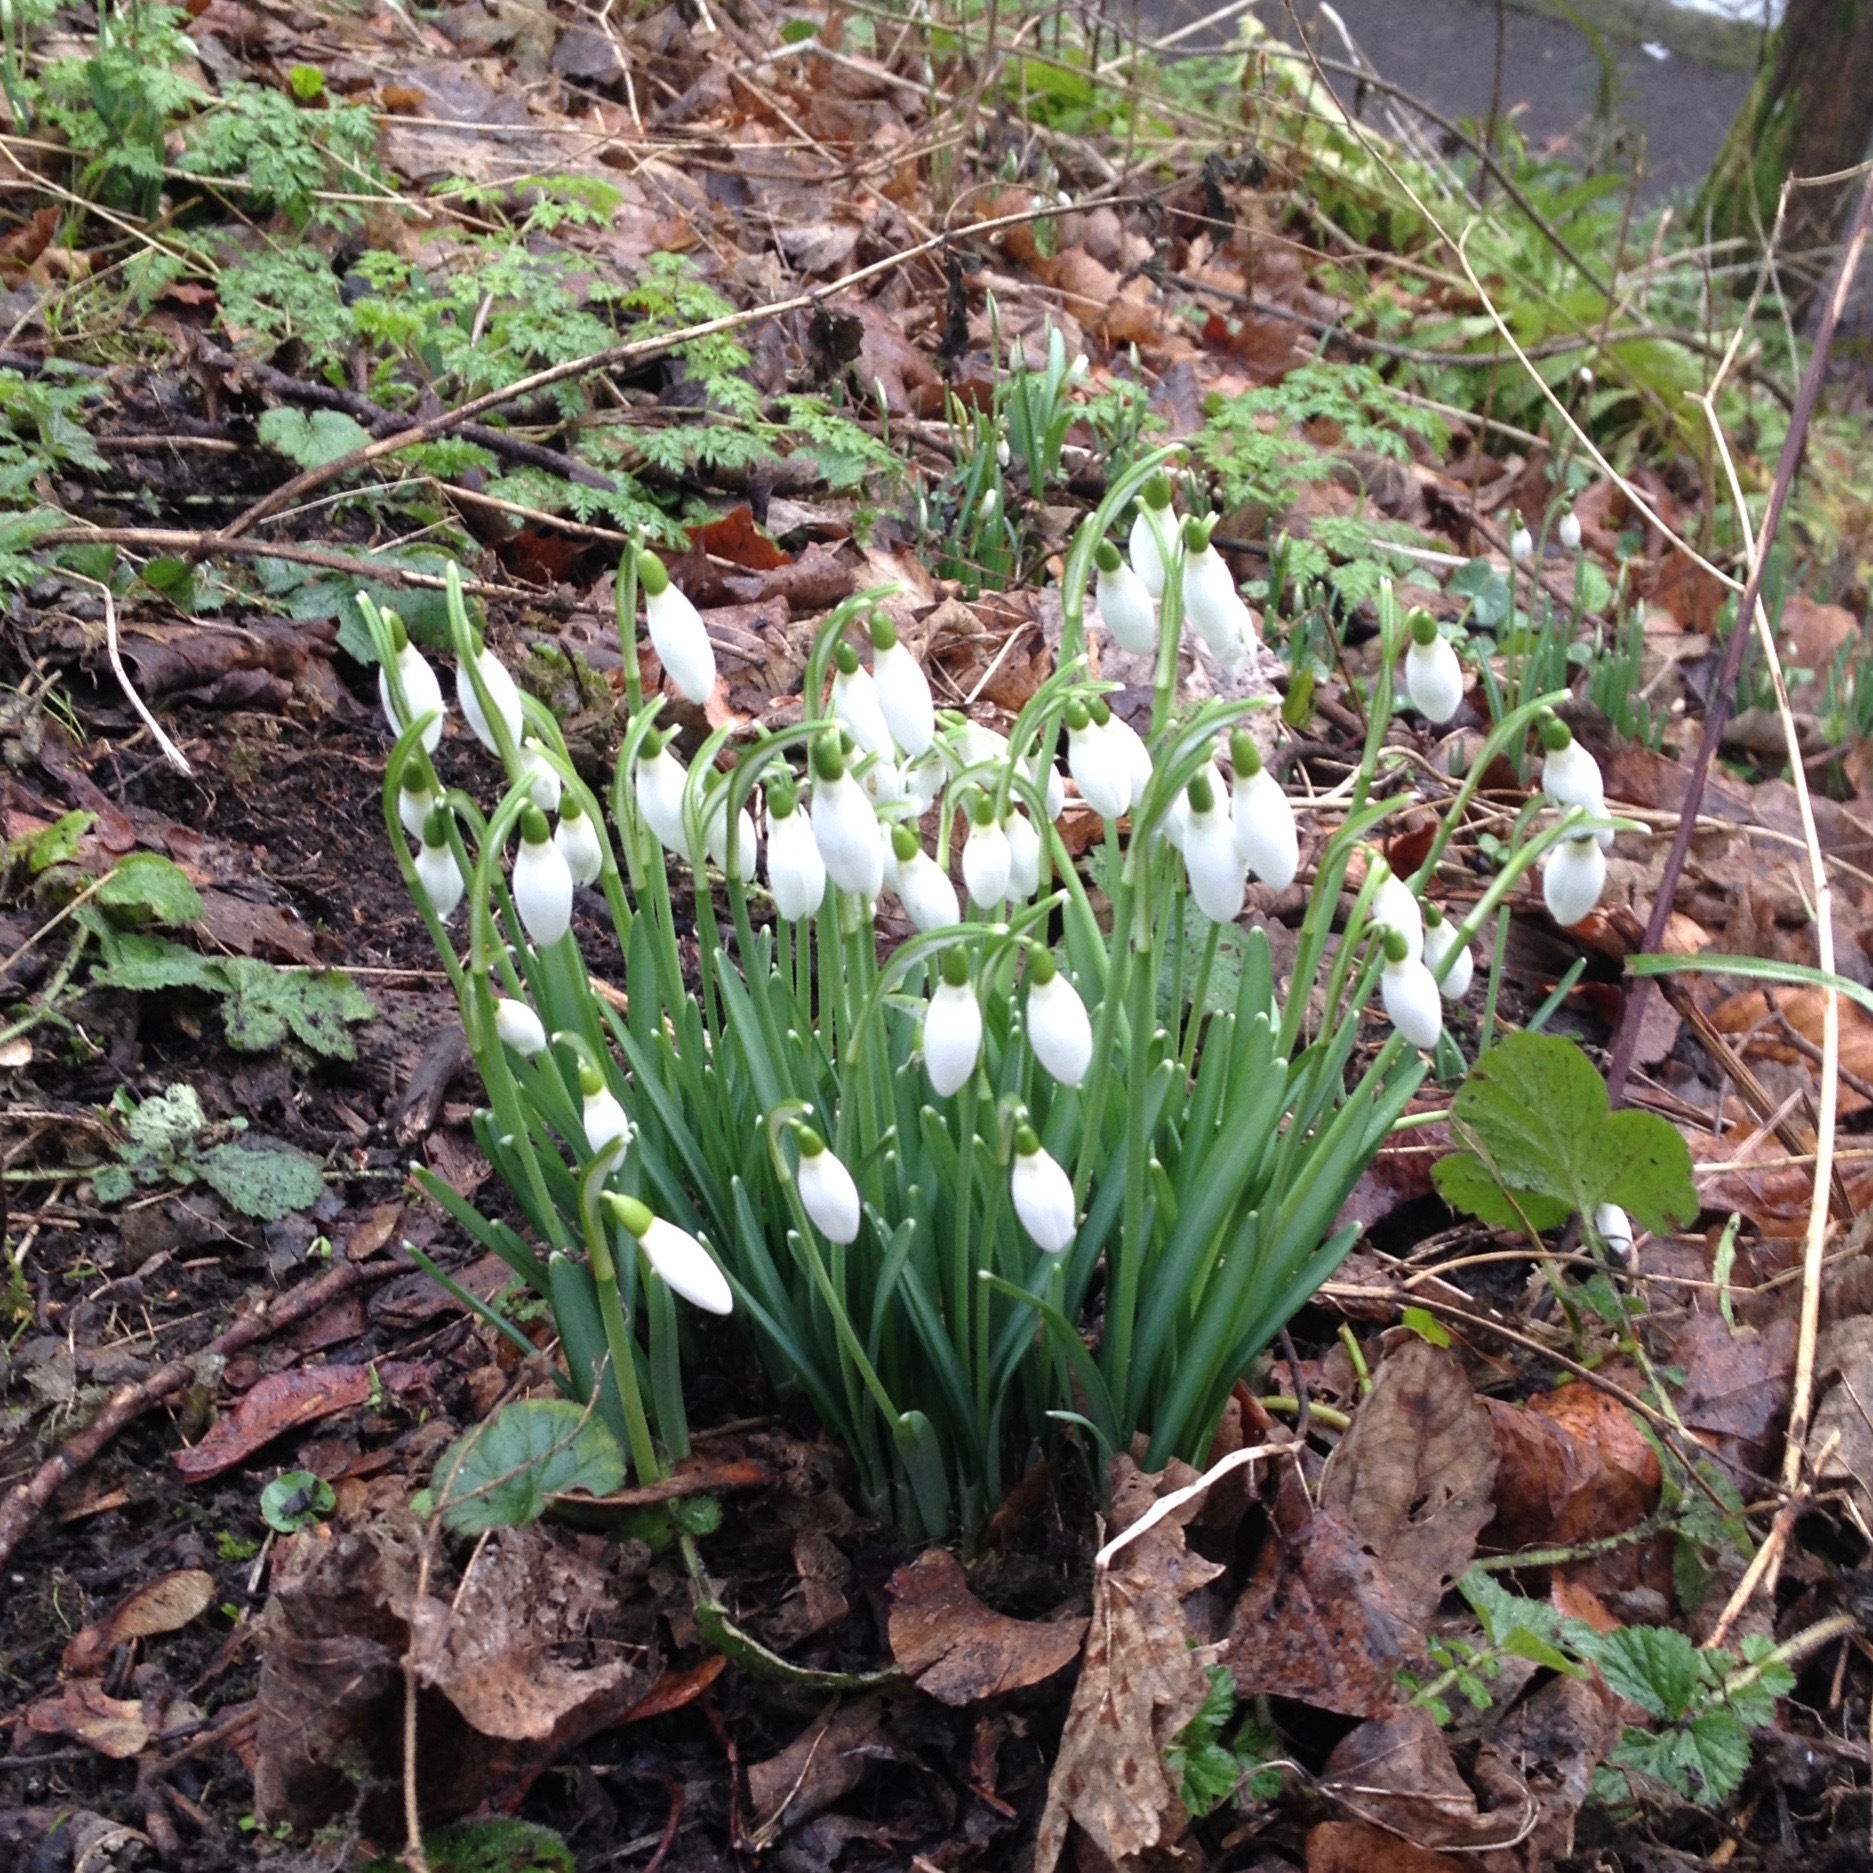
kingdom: Plantae
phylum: Tracheophyta
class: Liliopsida
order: Asparagales
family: Amaryllidaceae
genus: Galanthus
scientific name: Galanthus nivalis
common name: Snowdrop
